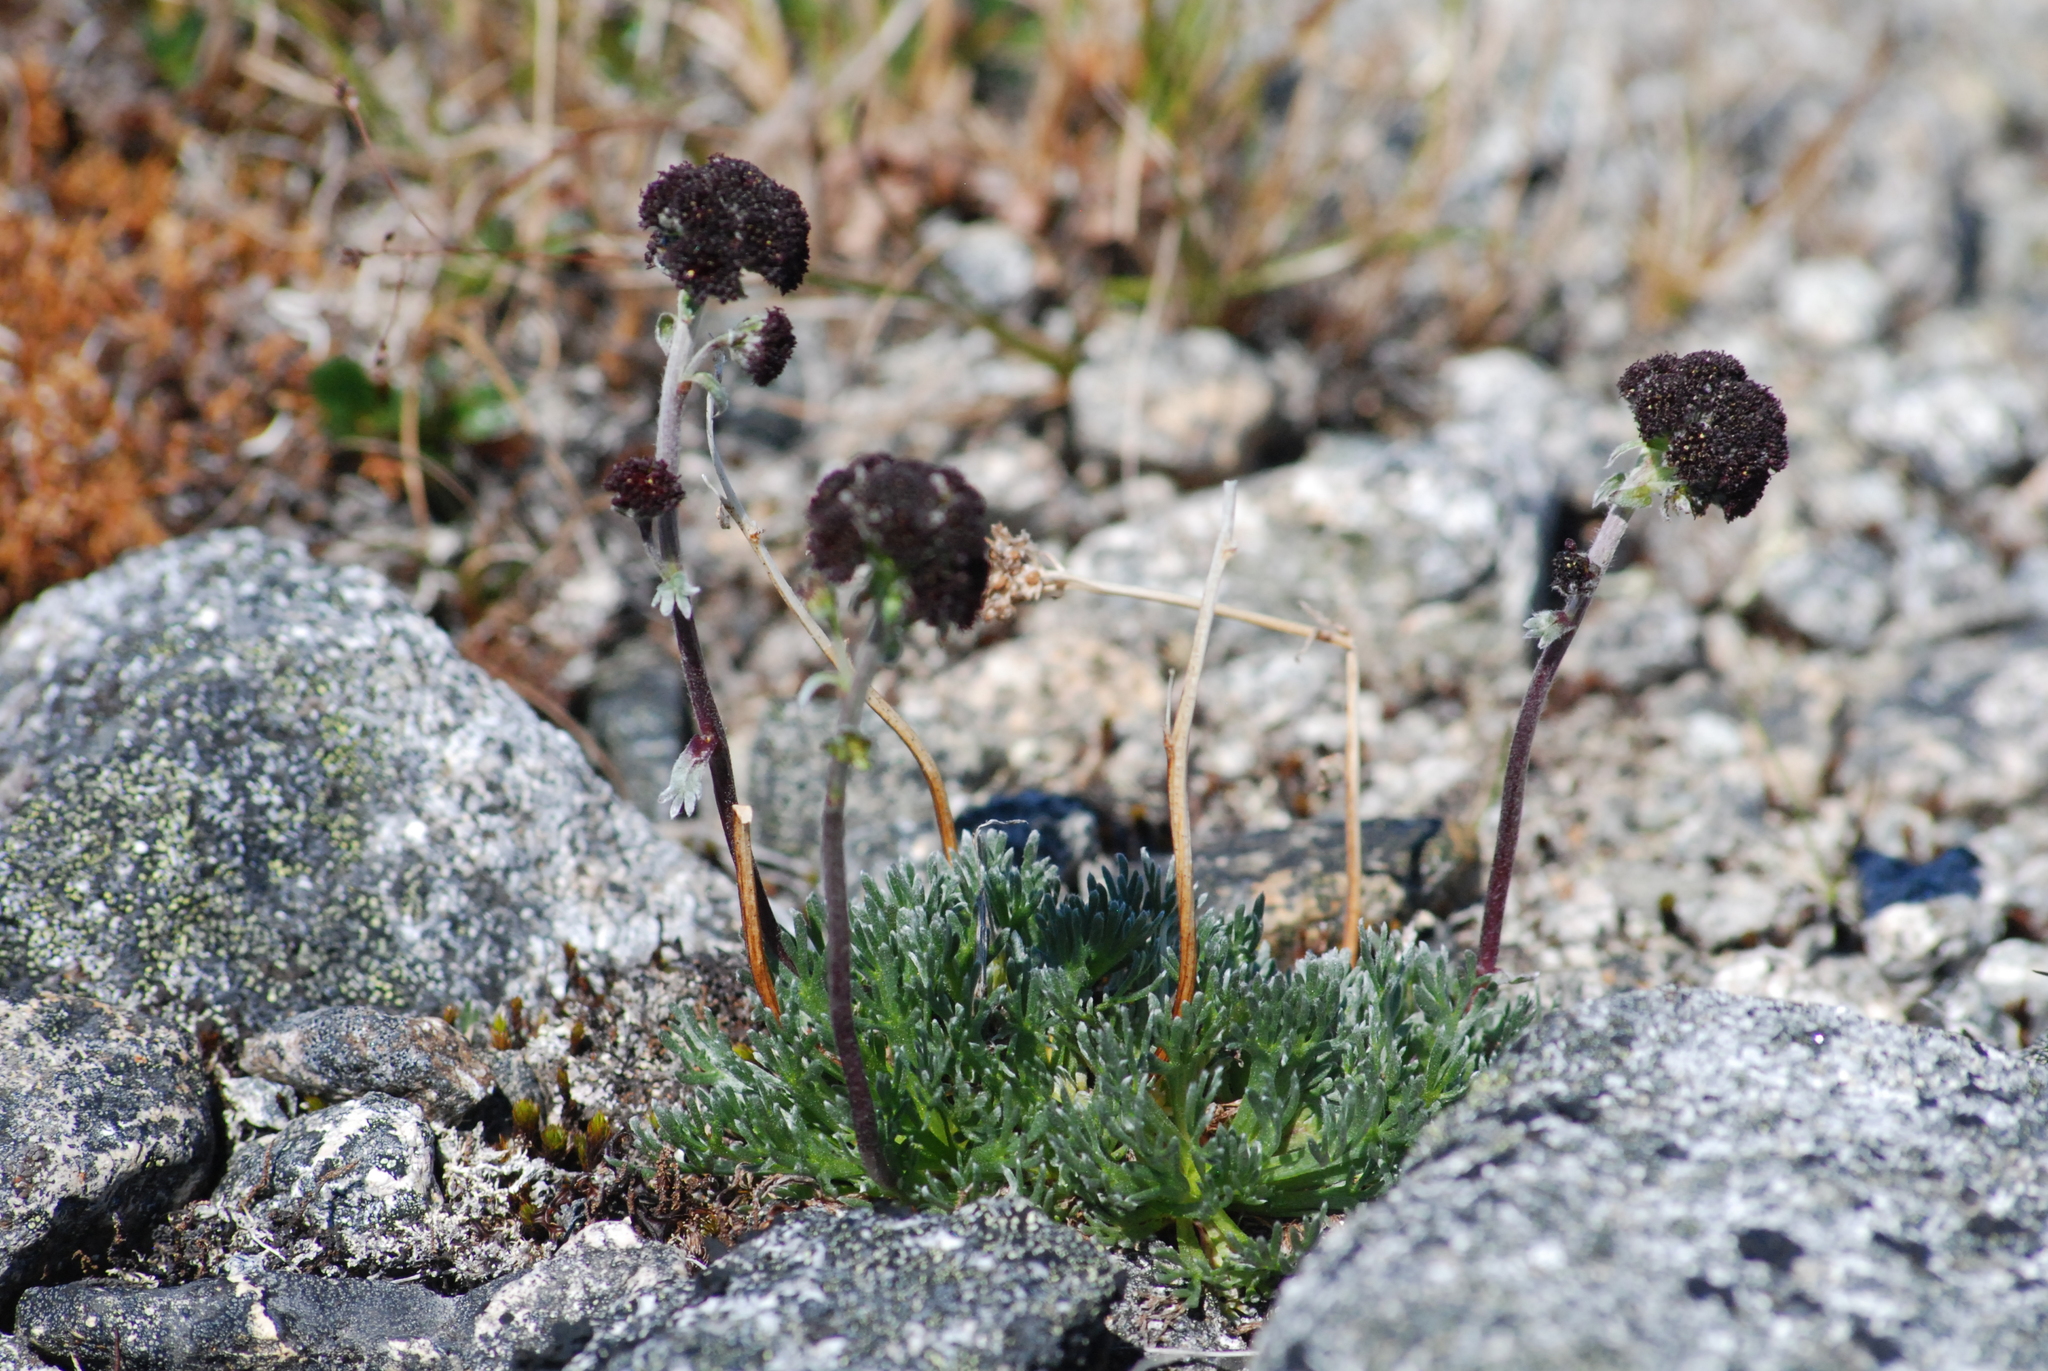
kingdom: Plantae
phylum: Tracheophyta
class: Magnoliopsida
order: Asterales
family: Asteraceae
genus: Artemisia
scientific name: Artemisia globularia
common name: Purple wormwood
